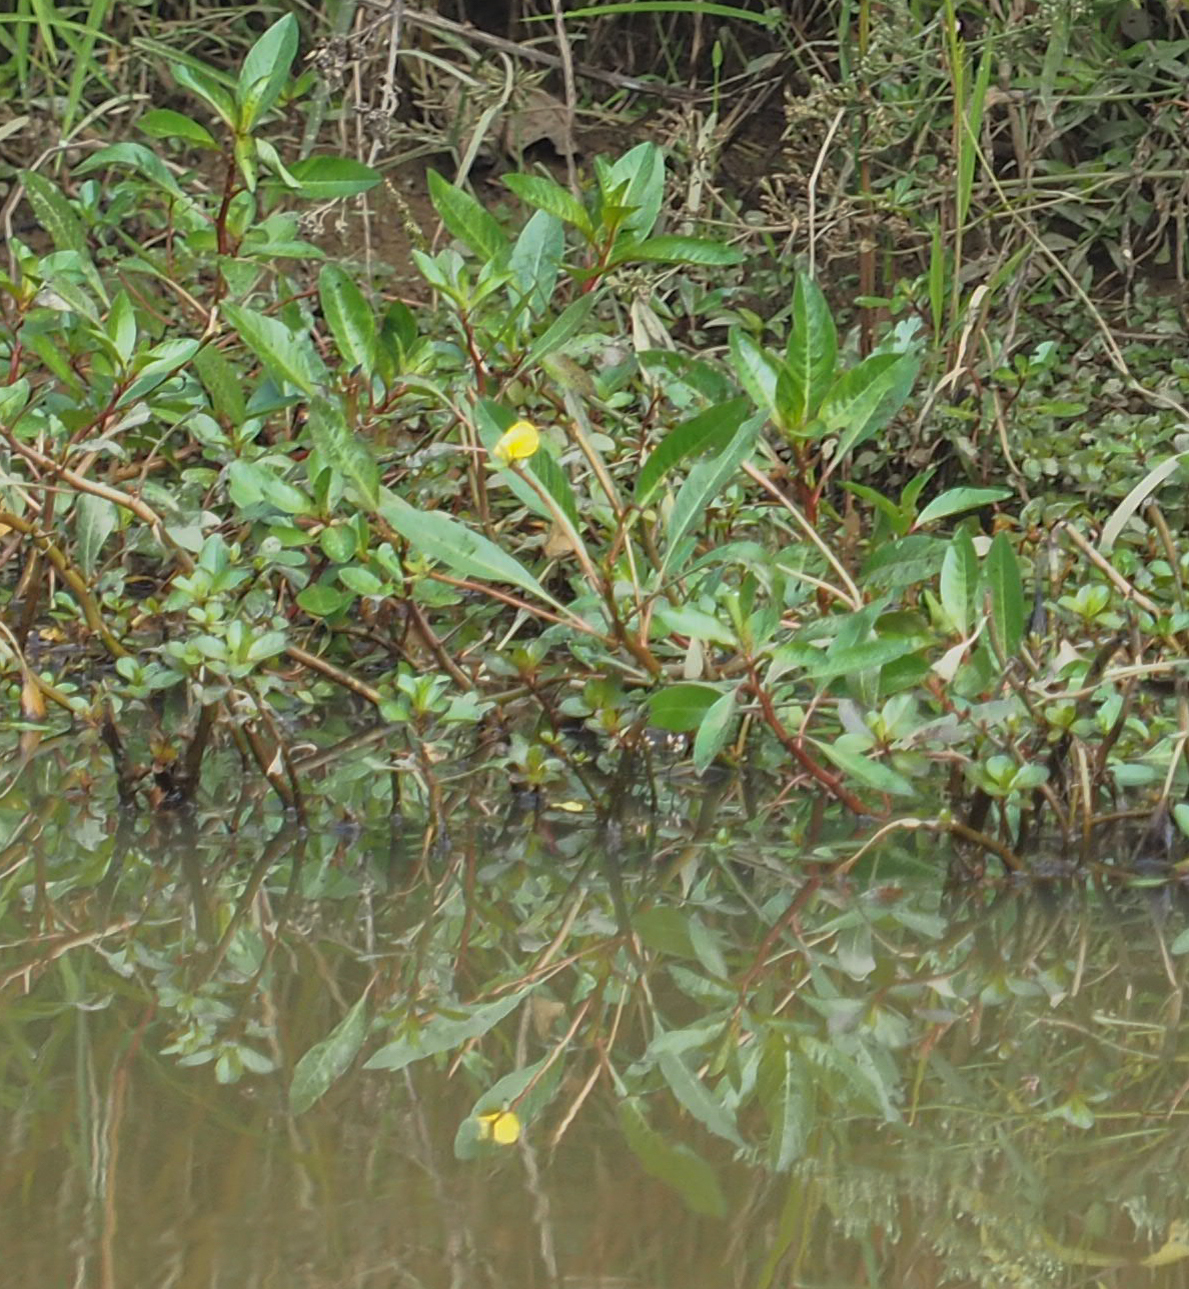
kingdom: Plantae
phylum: Tracheophyta
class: Magnoliopsida
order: Myrtales
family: Onagraceae
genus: Ludwigia
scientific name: Ludwigia peploides
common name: Floating primrose-willow
